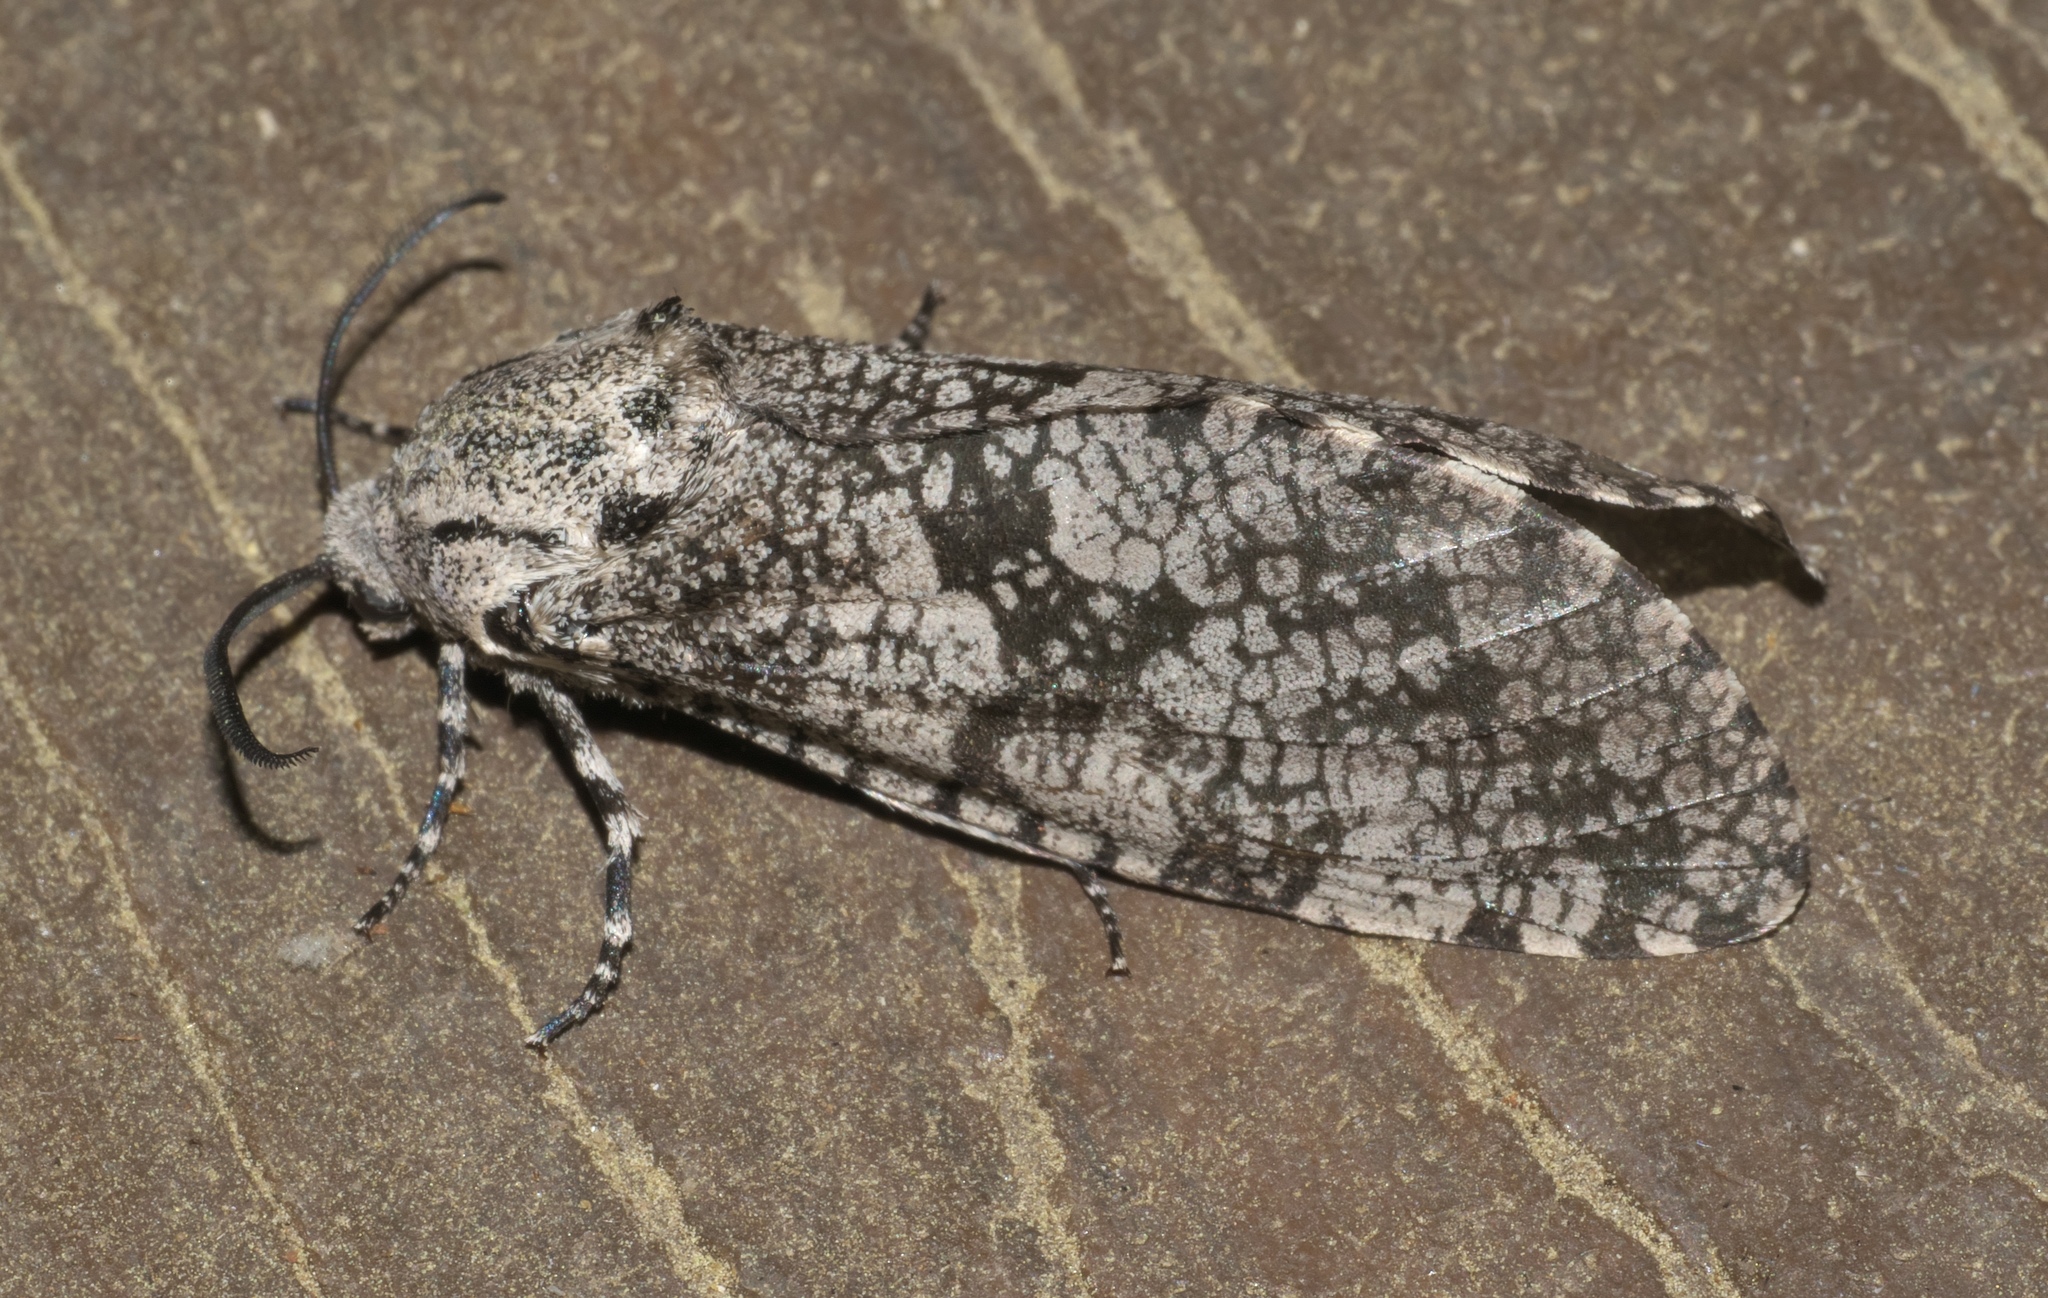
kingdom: Animalia
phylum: Arthropoda
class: Insecta
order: Lepidoptera
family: Cossidae
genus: Prionoxystus
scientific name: Prionoxystus robiniae
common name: Carpenterworm
